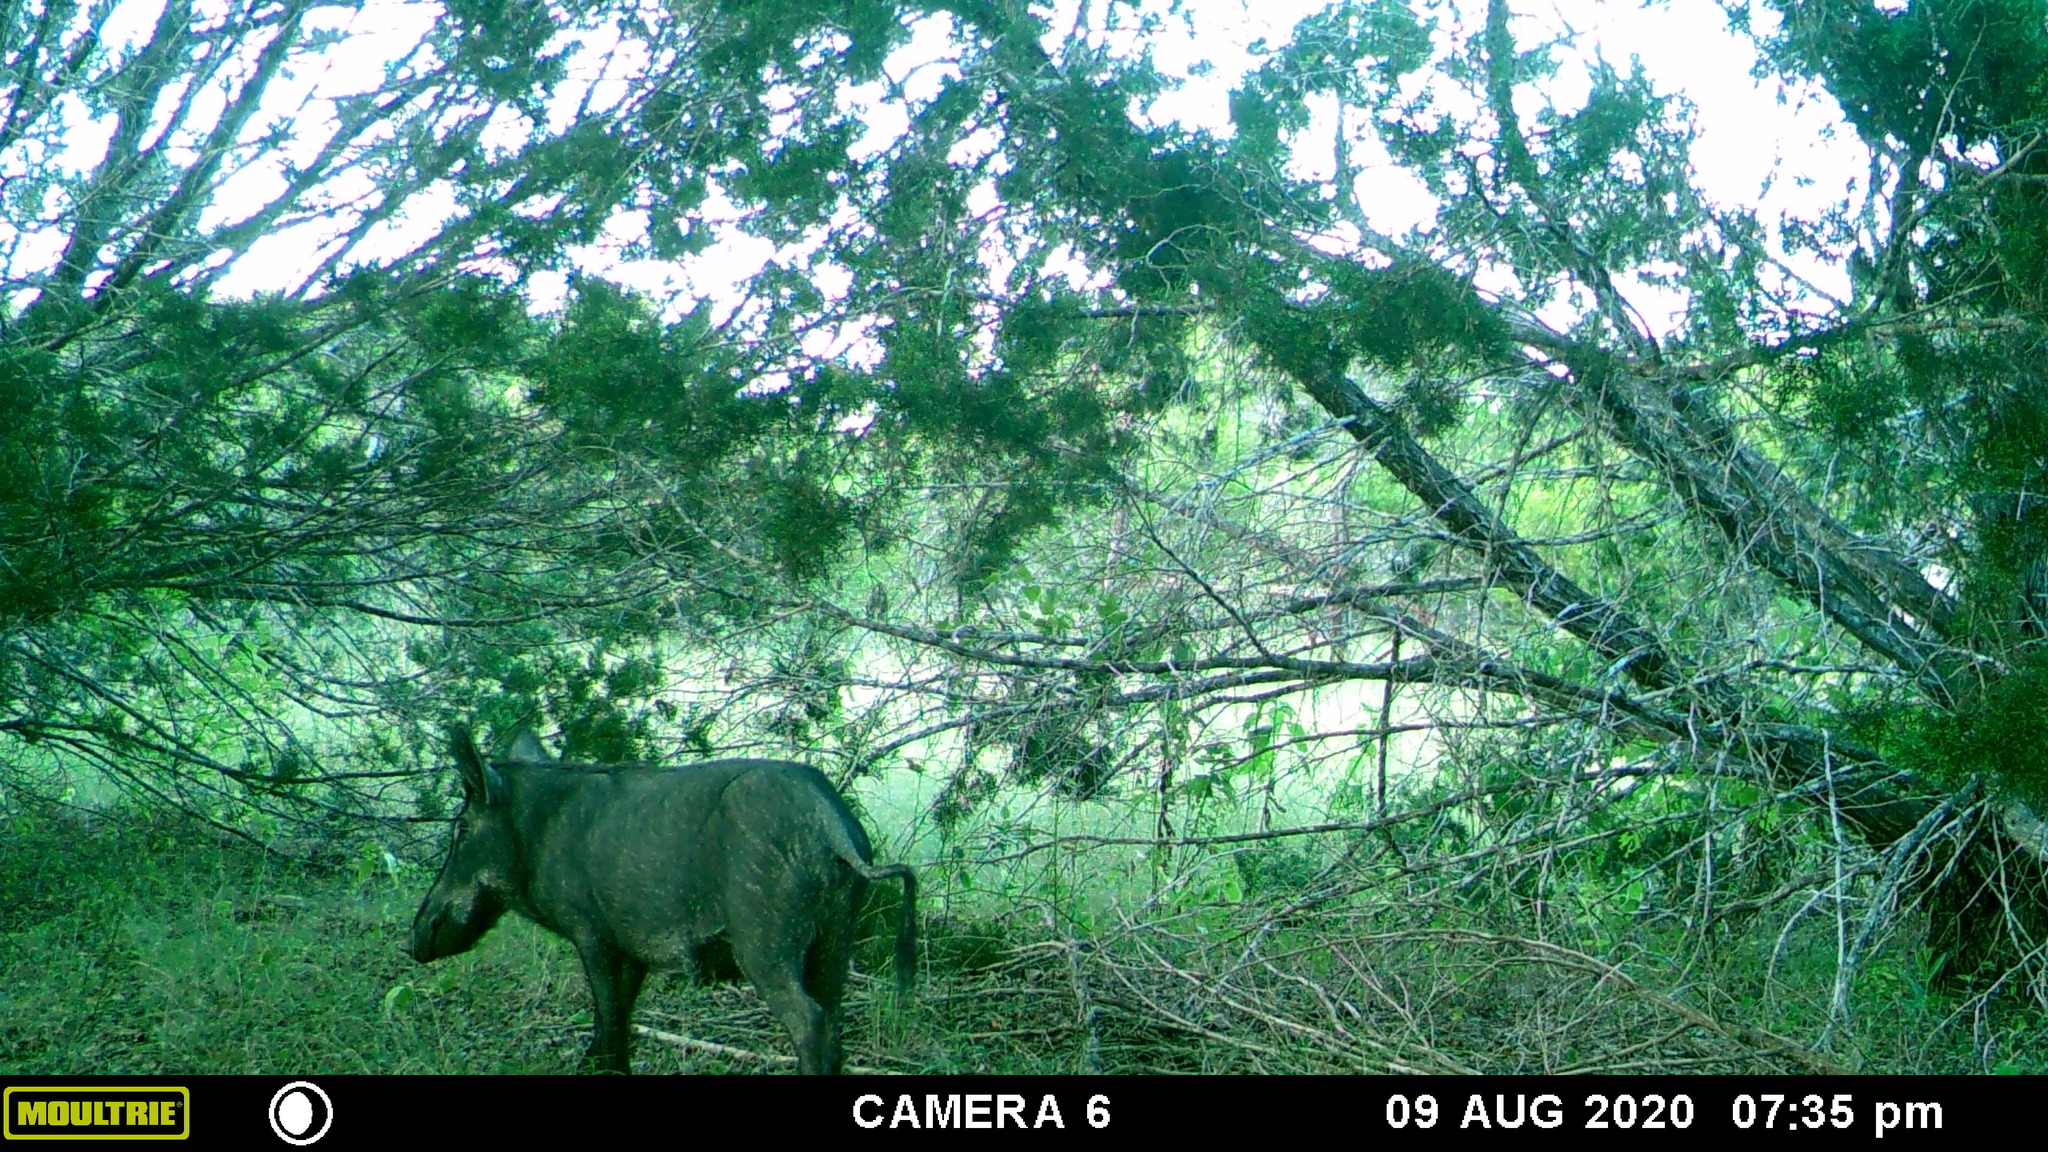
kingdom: Animalia
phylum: Chordata
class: Mammalia
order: Artiodactyla
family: Suidae
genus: Sus
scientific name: Sus scrofa
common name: Wild boar
